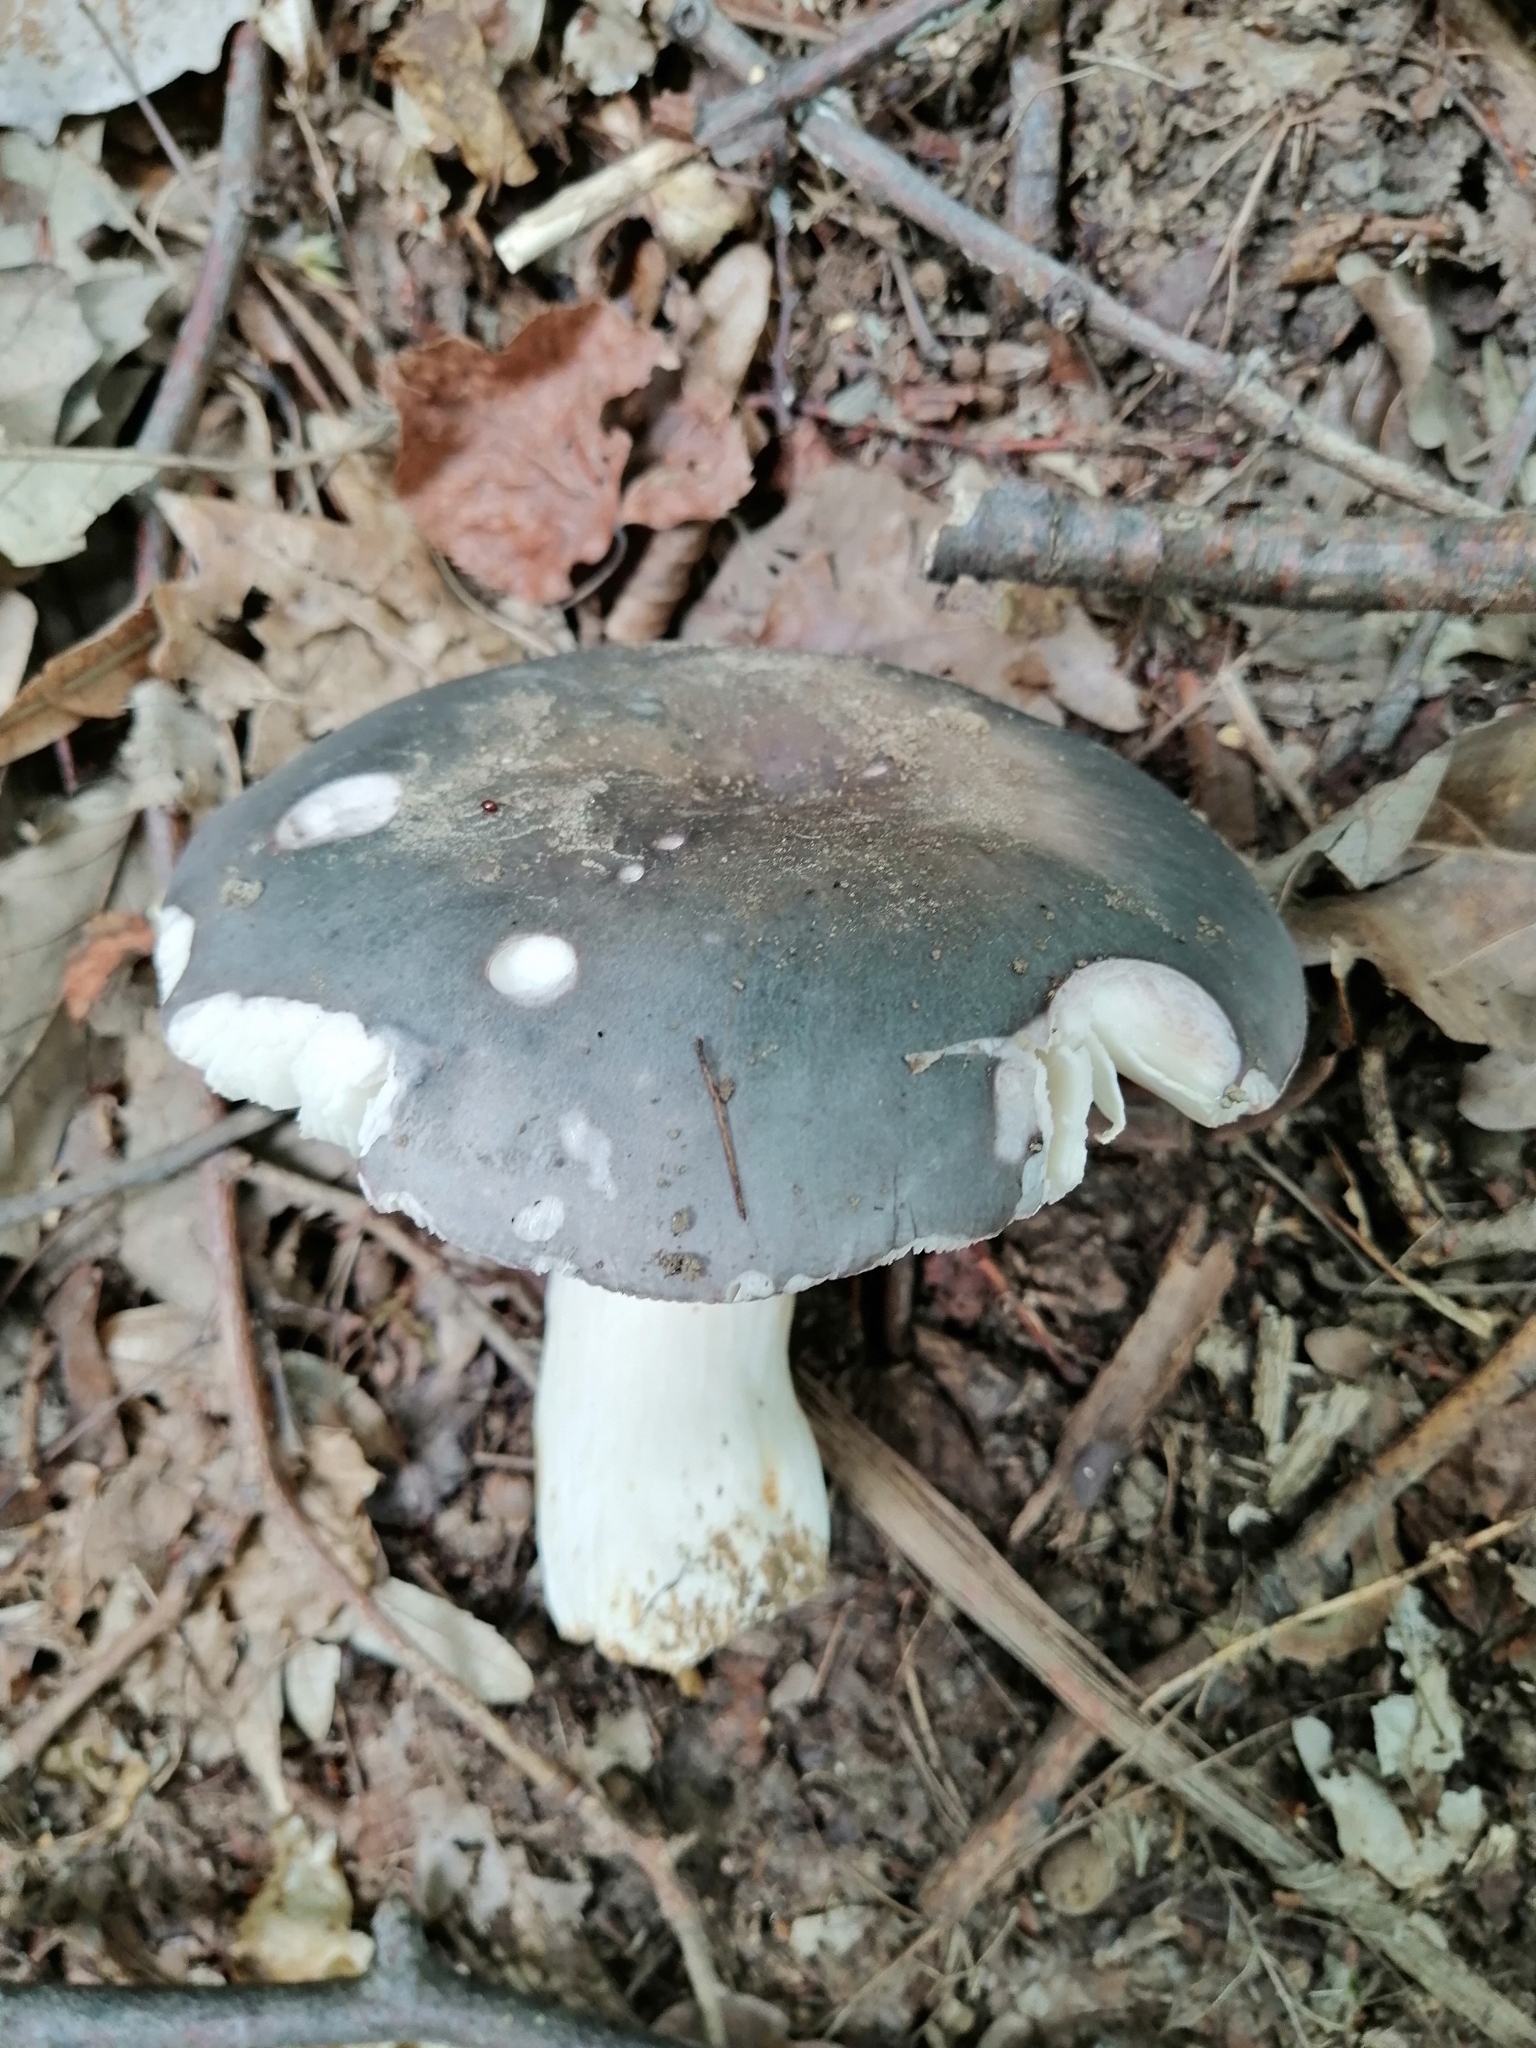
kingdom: Fungi
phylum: Basidiomycota
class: Agaricomycetes
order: Russulales
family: Russulaceae
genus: Russula
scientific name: Russula cyanoxantha
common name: Charcoal burner
